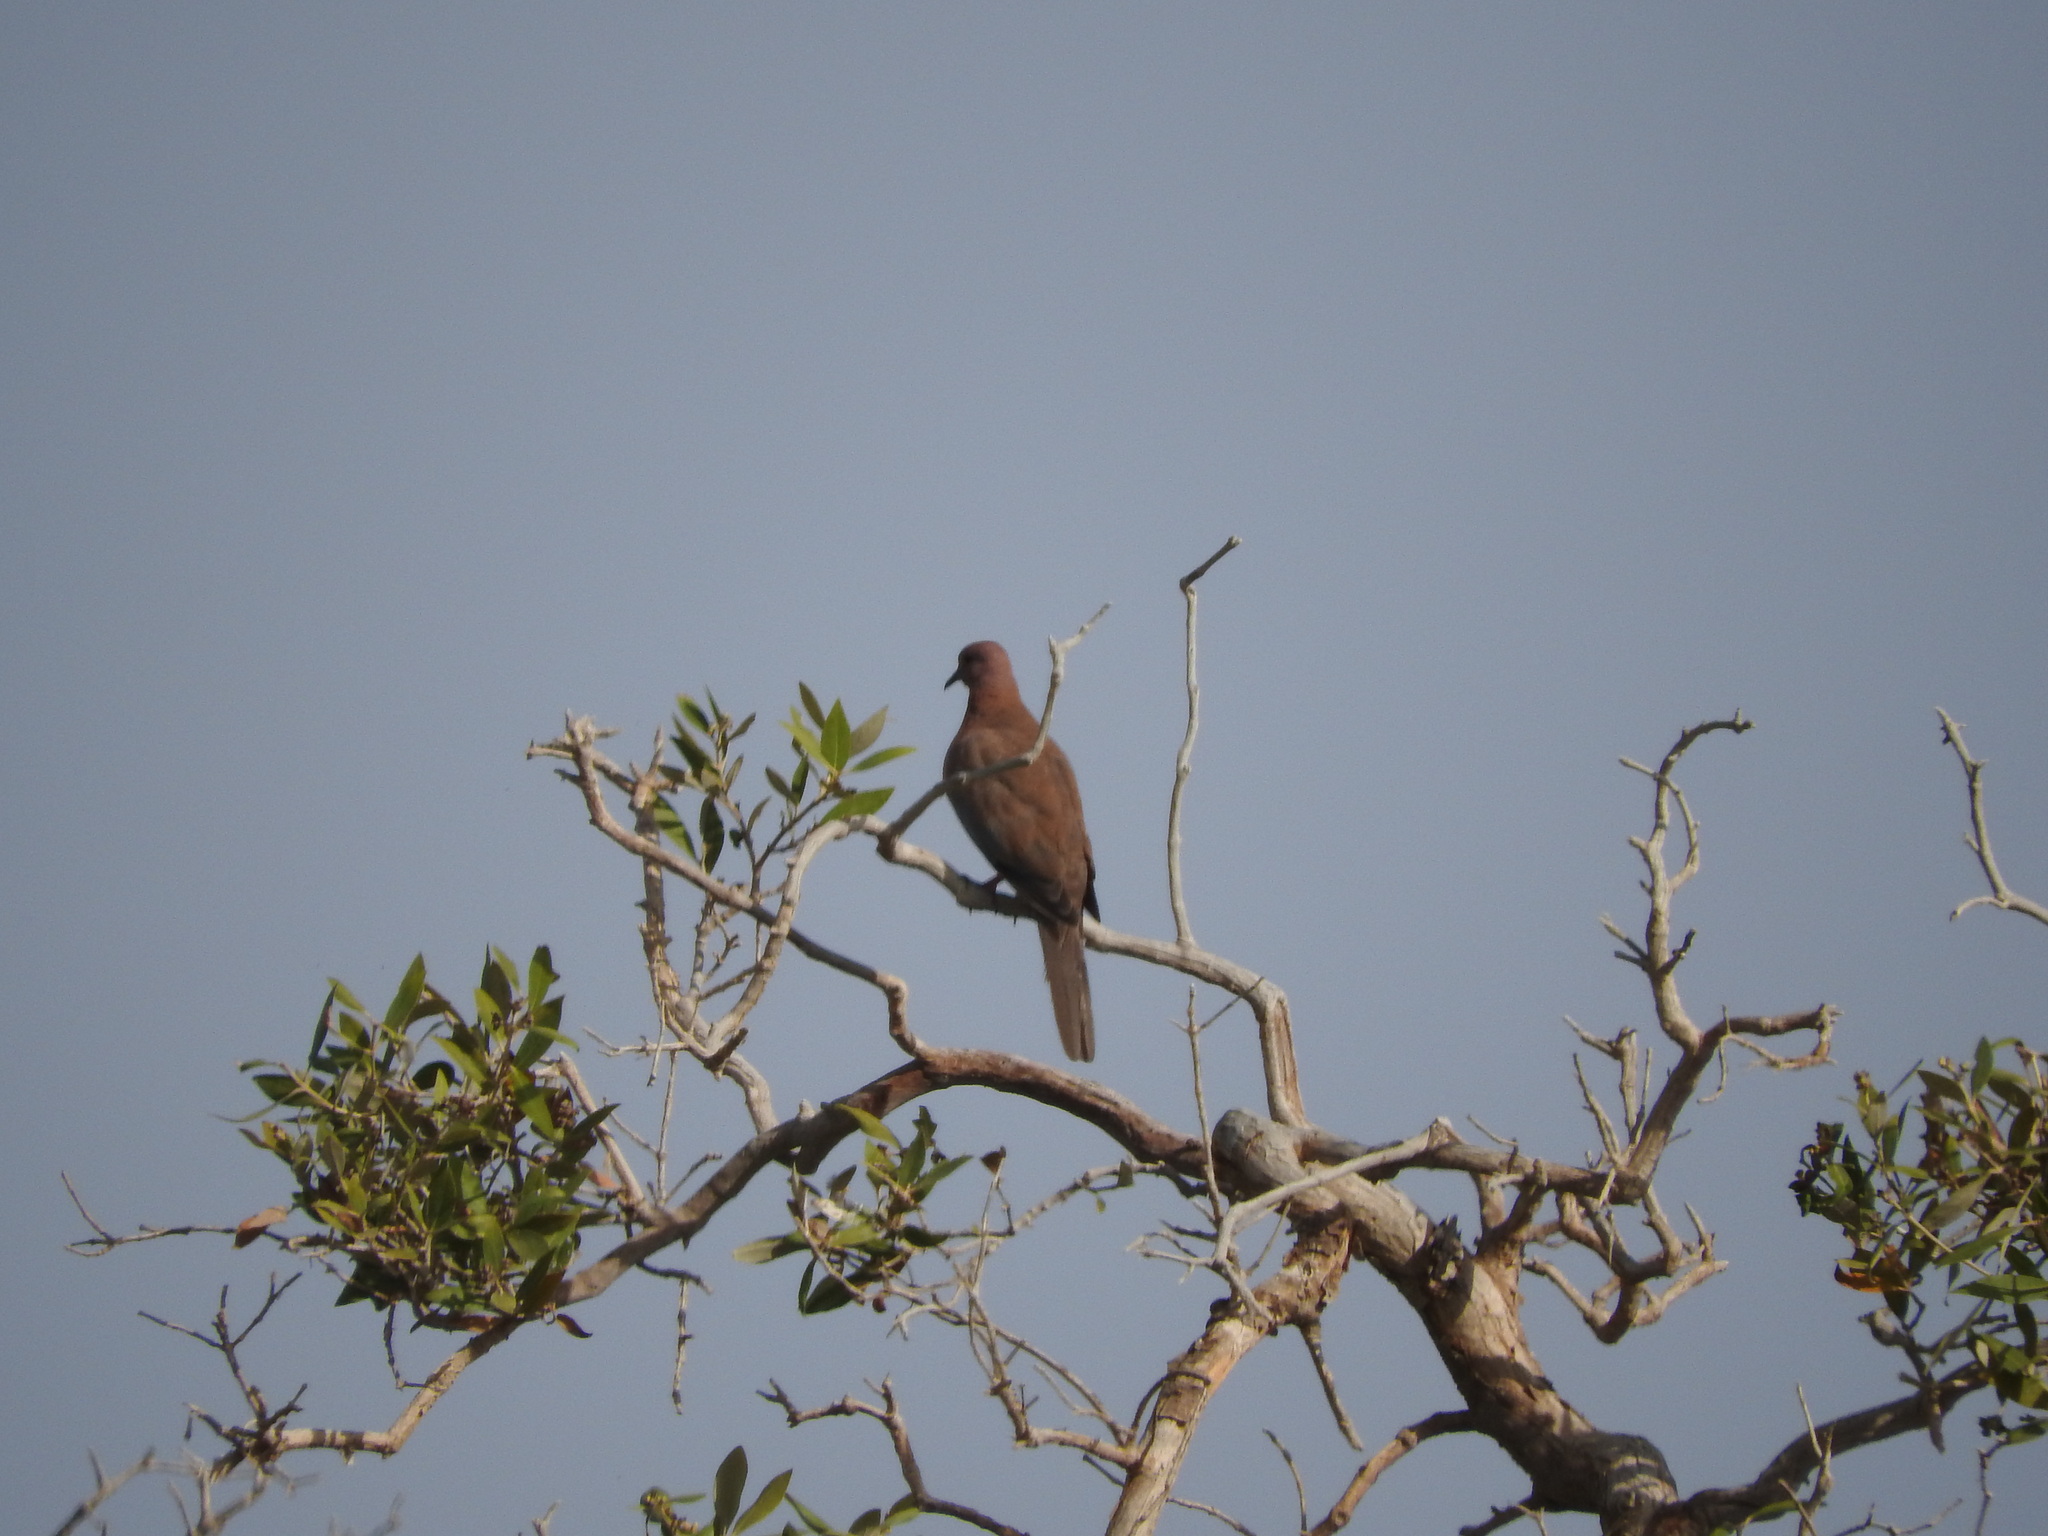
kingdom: Animalia
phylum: Chordata
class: Aves
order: Columbiformes
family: Columbidae
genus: Spilopelia
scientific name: Spilopelia senegalensis
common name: Laughing dove
